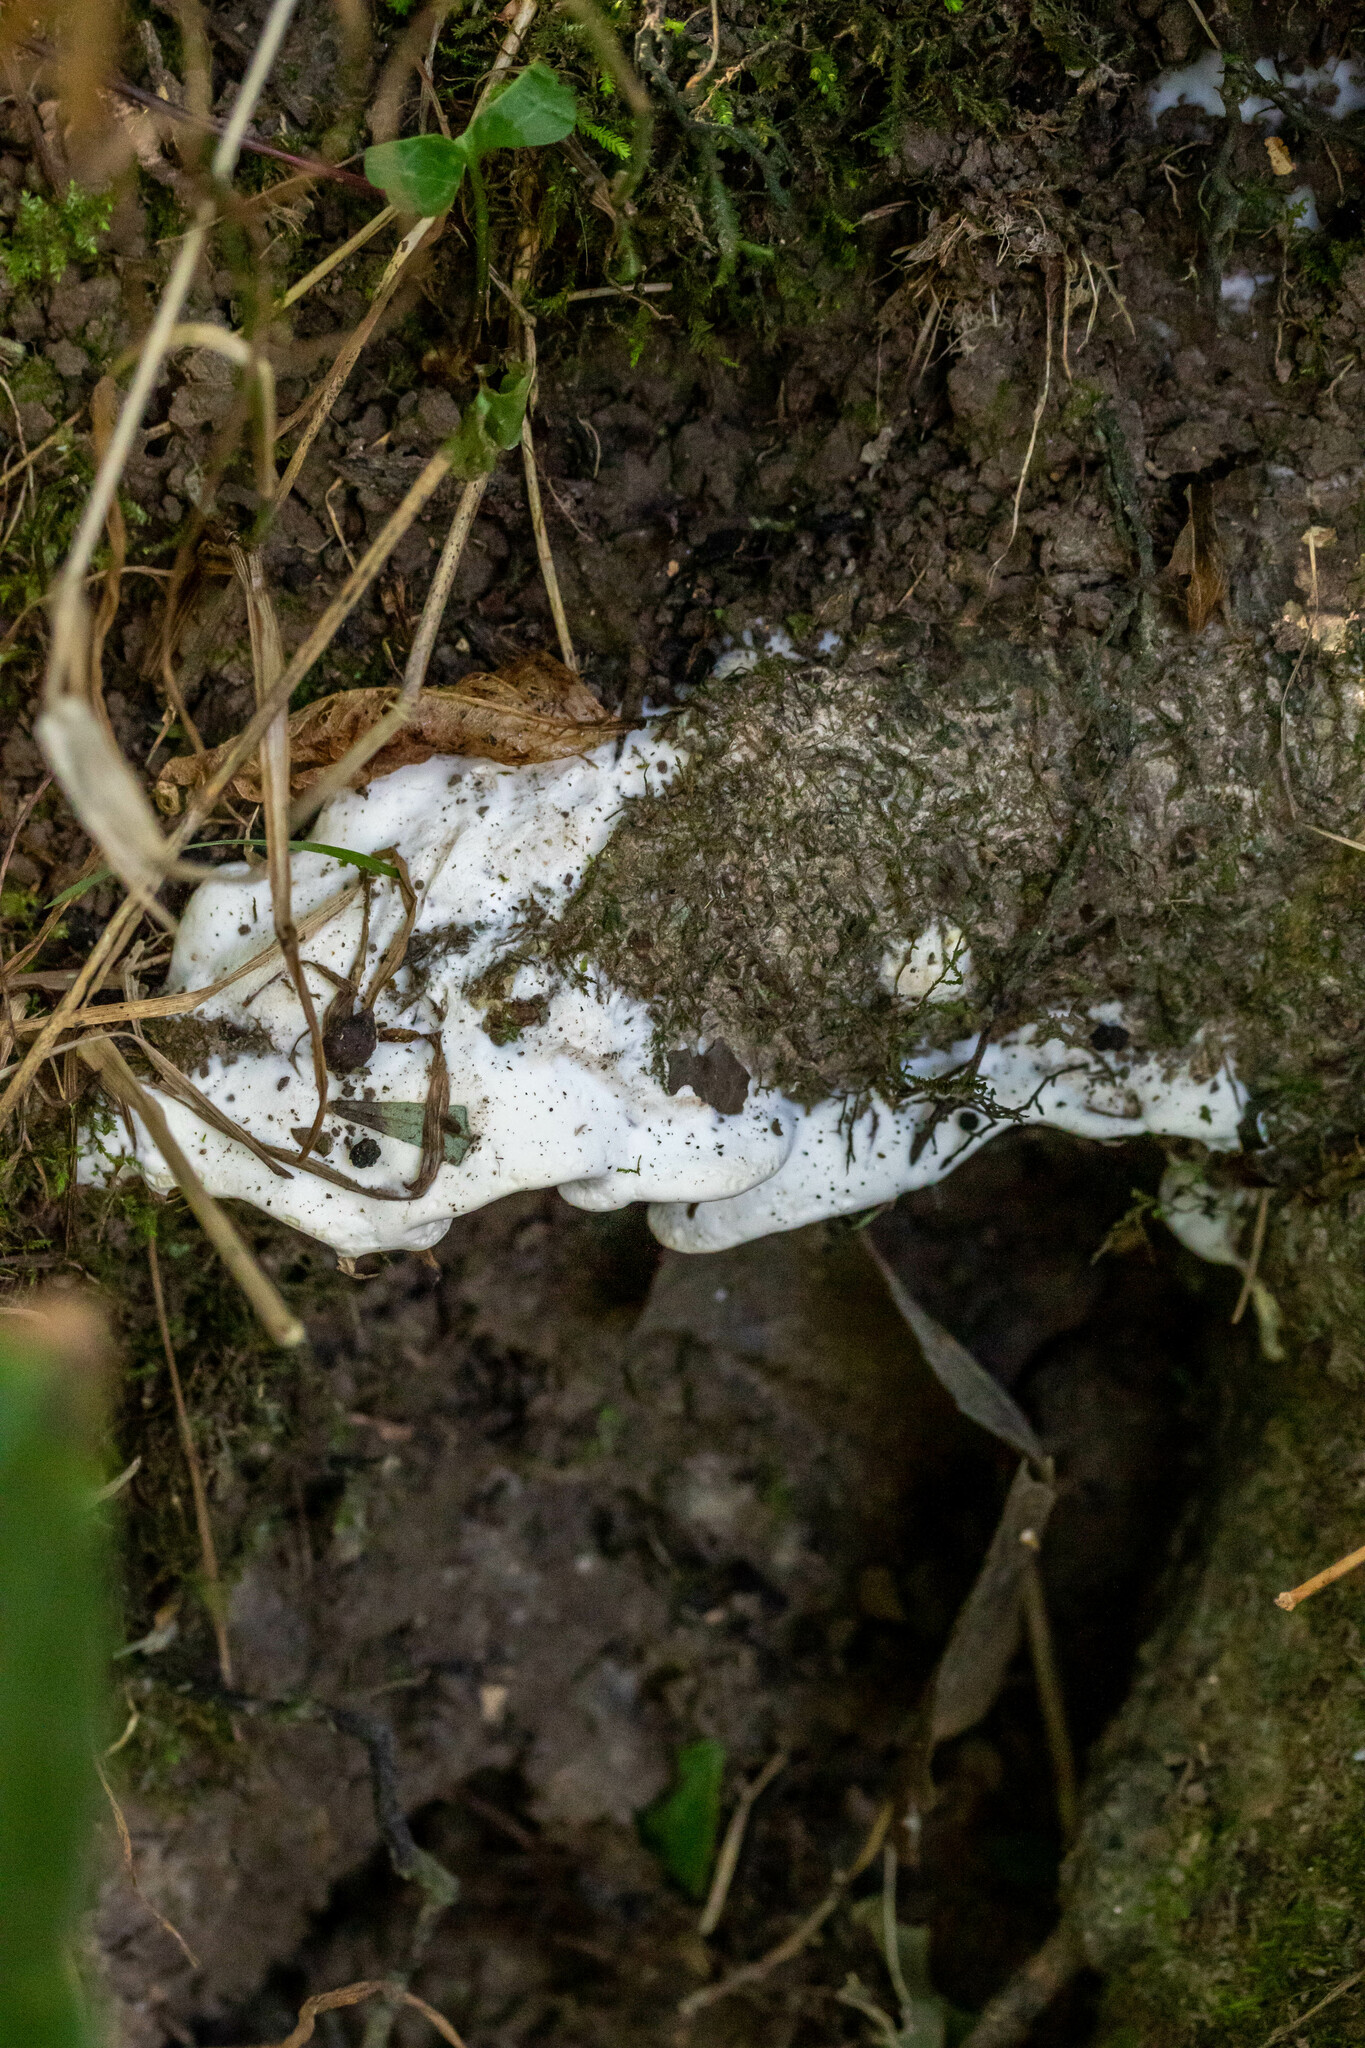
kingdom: Fungi
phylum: Basidiomycota
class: Agaricomycetes
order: Hymenochaetales
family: Oxyporaceae
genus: Oxyporus
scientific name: Oxyporus populinus
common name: Poplar bracket
